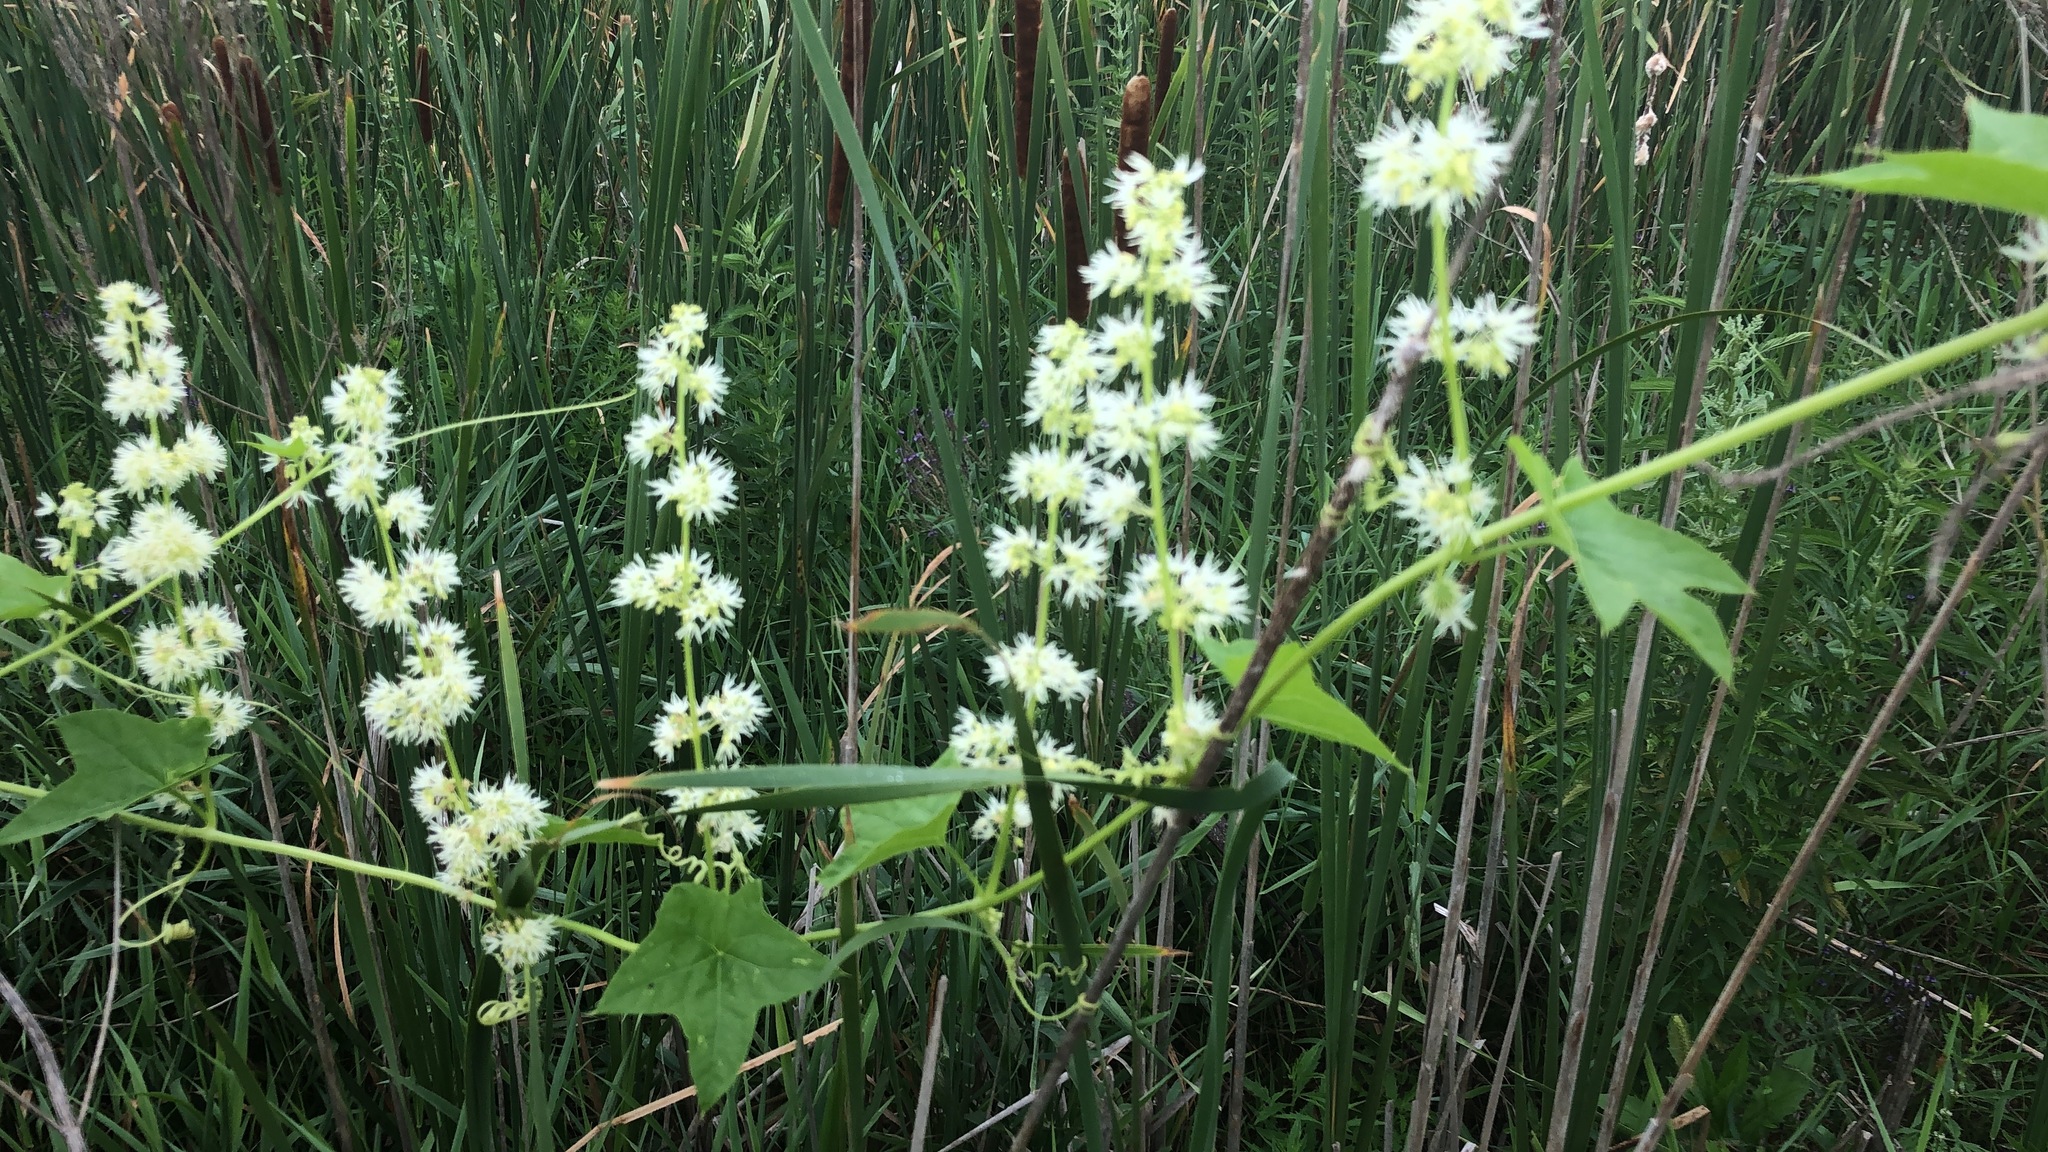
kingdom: Plantae
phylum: Tracheophyta
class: Magnoliopsida
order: Cucurbitales
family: Cucurbitaceae
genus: Echinocystis
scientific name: Echinocystis lobata
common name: Wild cucumber
